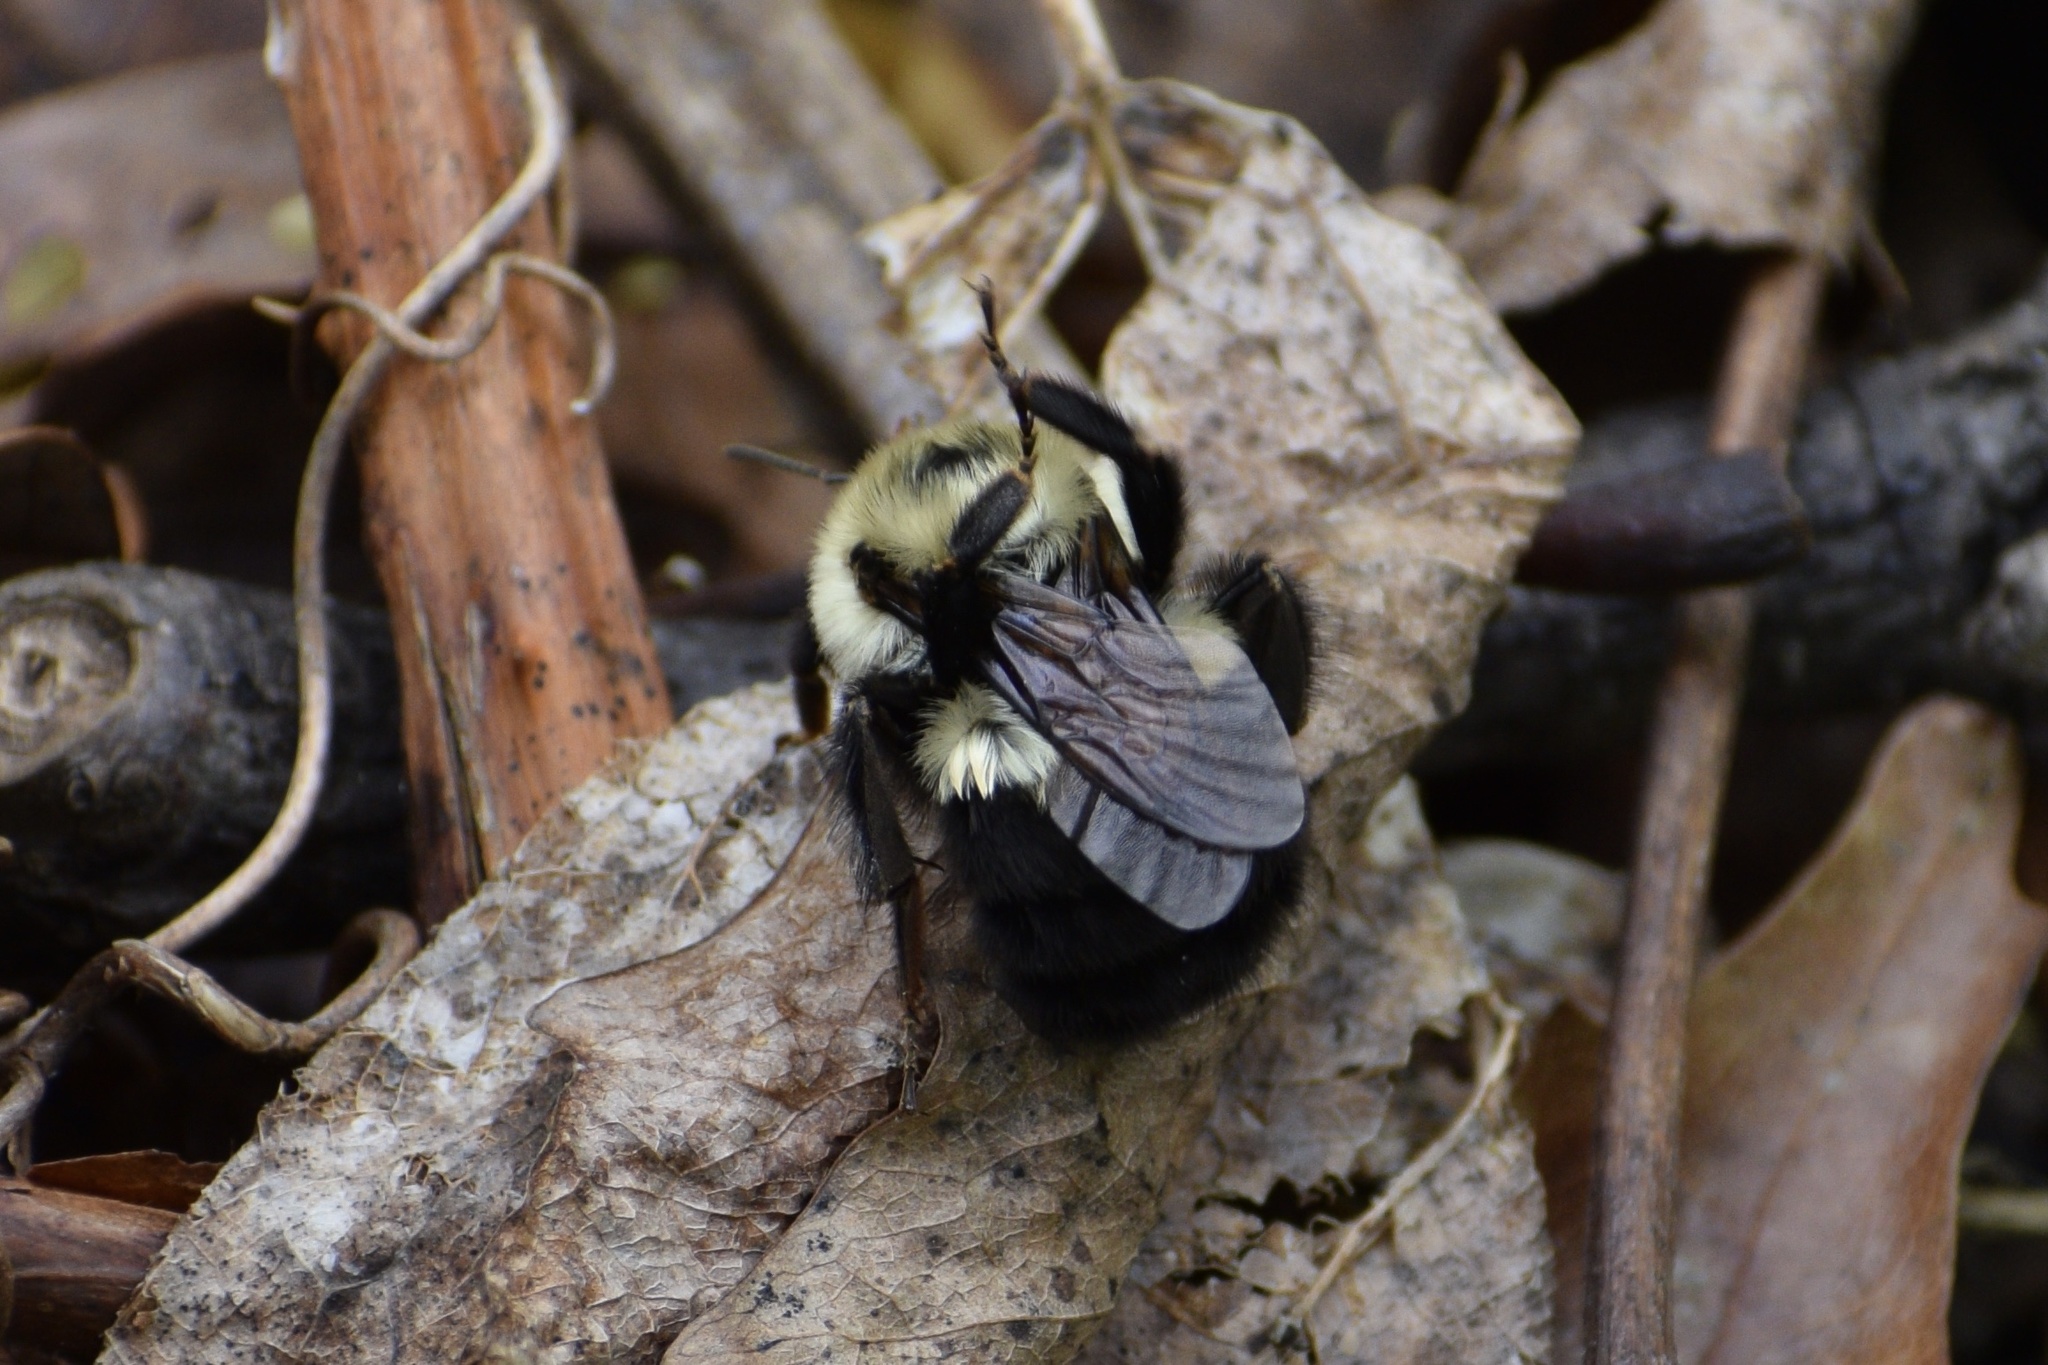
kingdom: Animalia
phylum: Arthropoda
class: Insecta
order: Hymenoptera
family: Apidae
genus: Bombus
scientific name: Bombus bimaculatus
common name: Two-spotted bumble bee
